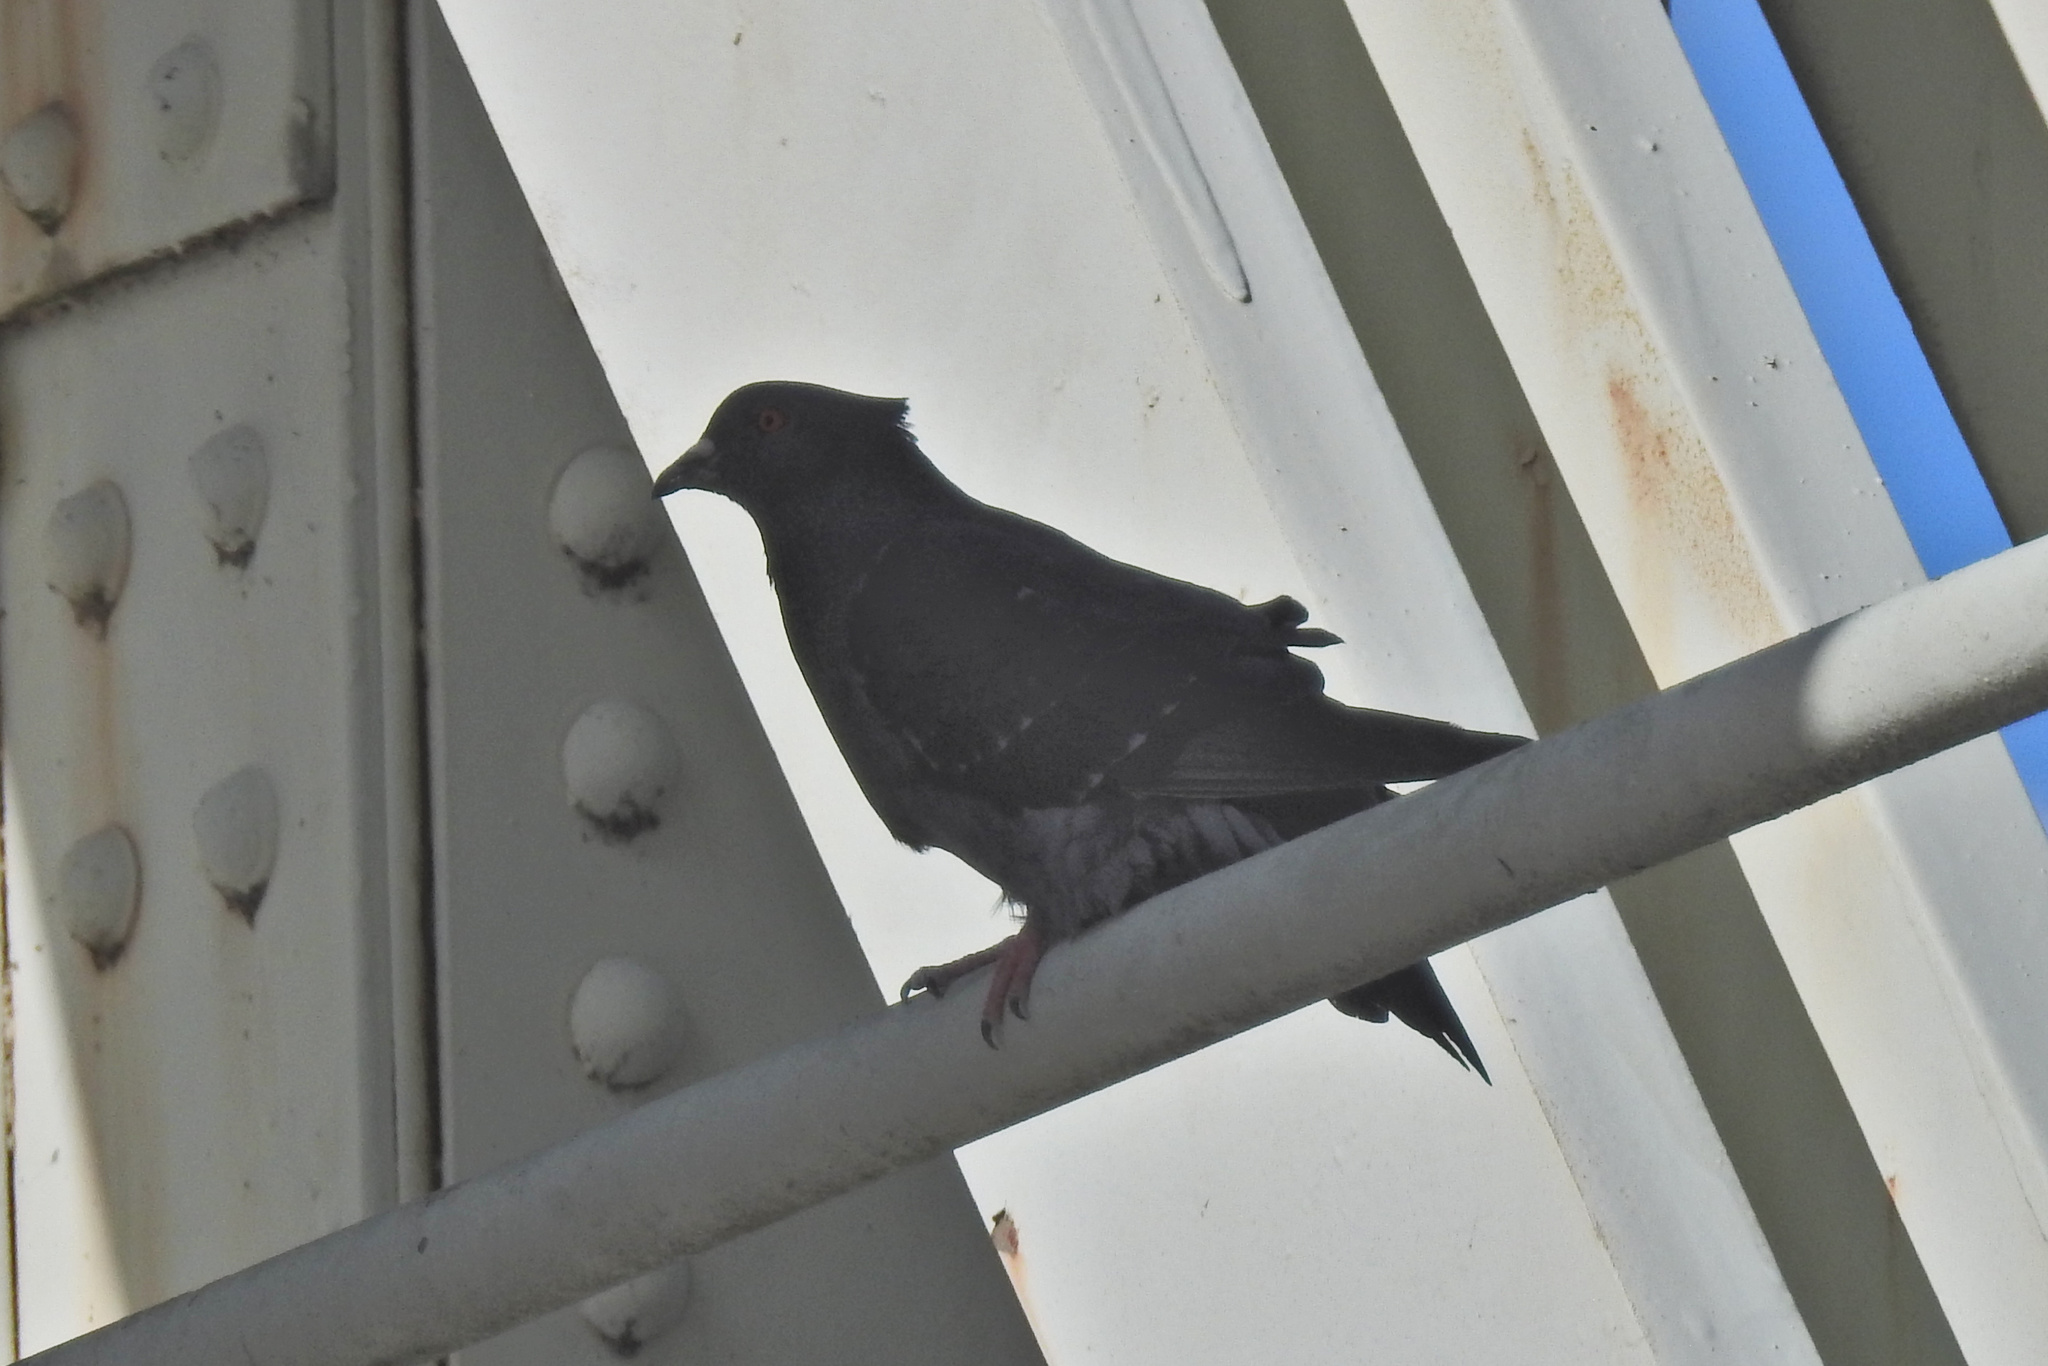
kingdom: Animalia
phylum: Chordata
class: Aves
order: Columbiformes
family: Columbidae
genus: Columba
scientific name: Columba livia
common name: Rock pigeon
